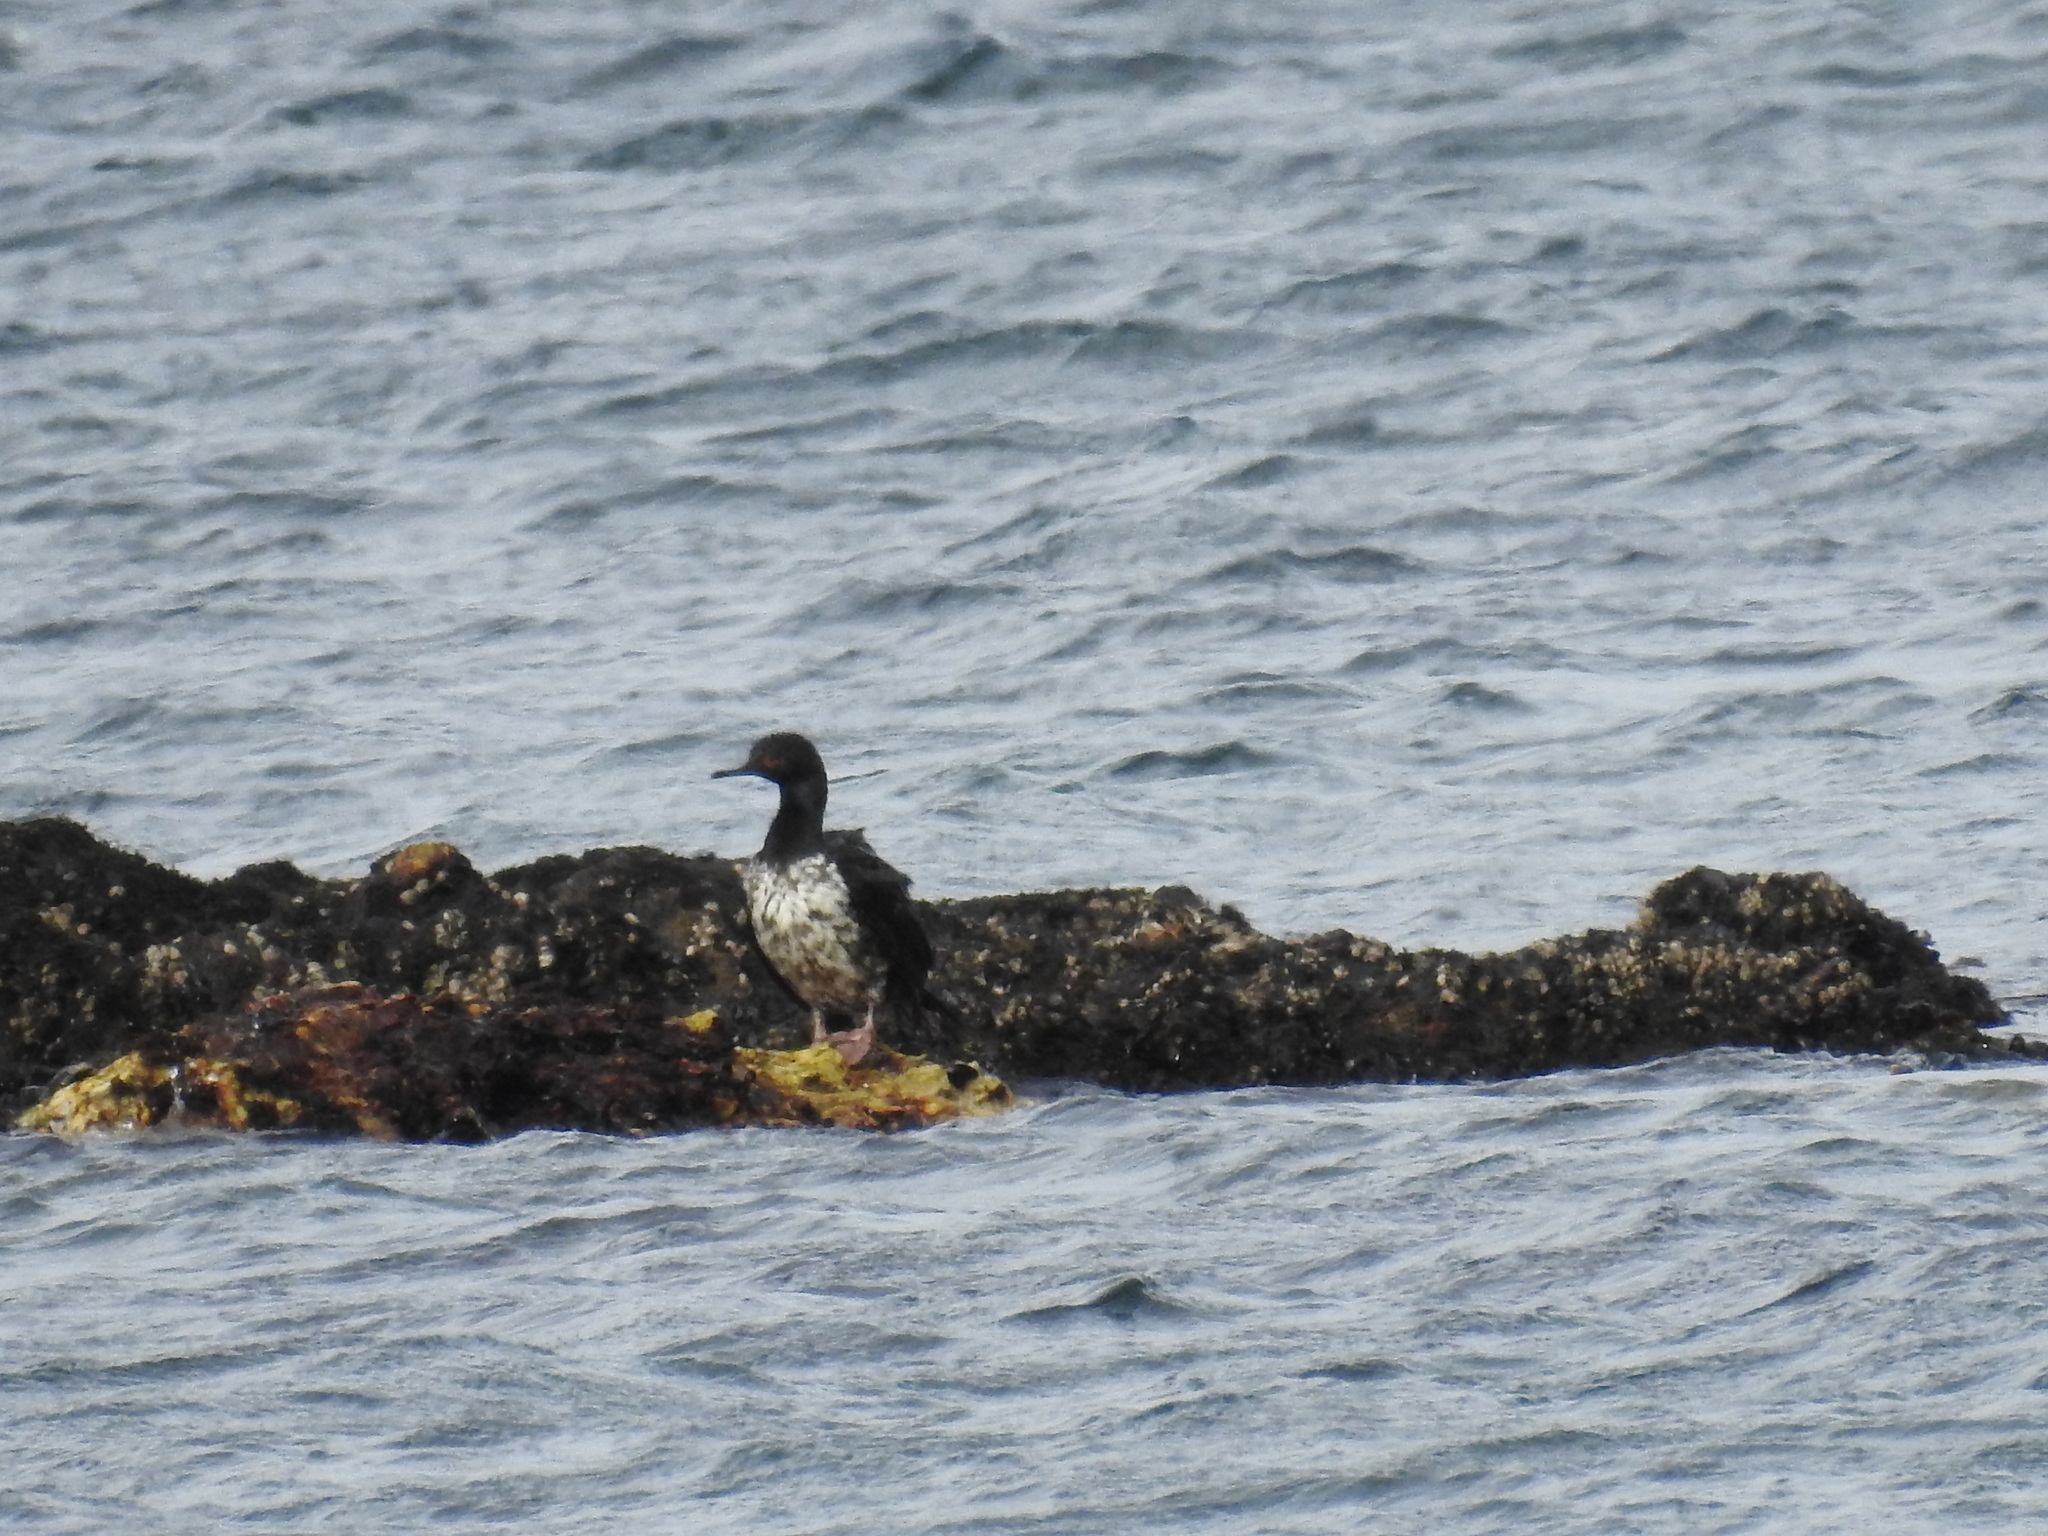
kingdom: Animalia
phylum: Chordata
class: Aves
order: Suliformes
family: Phalacrocoracidae
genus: Phalacrocorax
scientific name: Phalacrocorax magellanicus
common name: Rock shag
